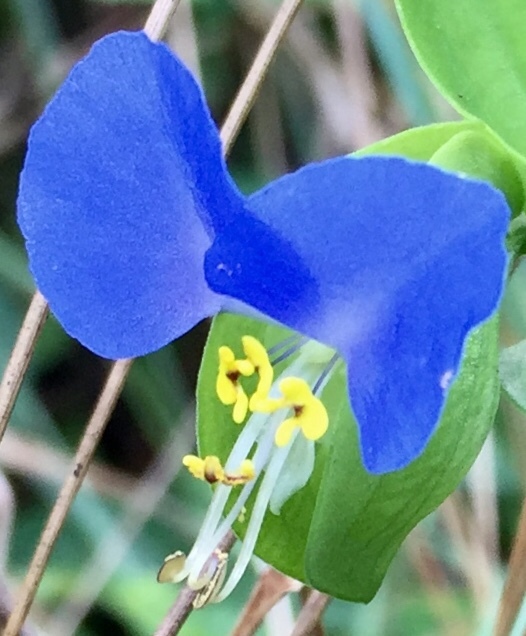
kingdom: Plantae
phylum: Tracheophyta
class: Liliopsida
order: Commelinales
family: Commelinaceae
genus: Commelina
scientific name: Commelina communis
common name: Asiatic dayflower
